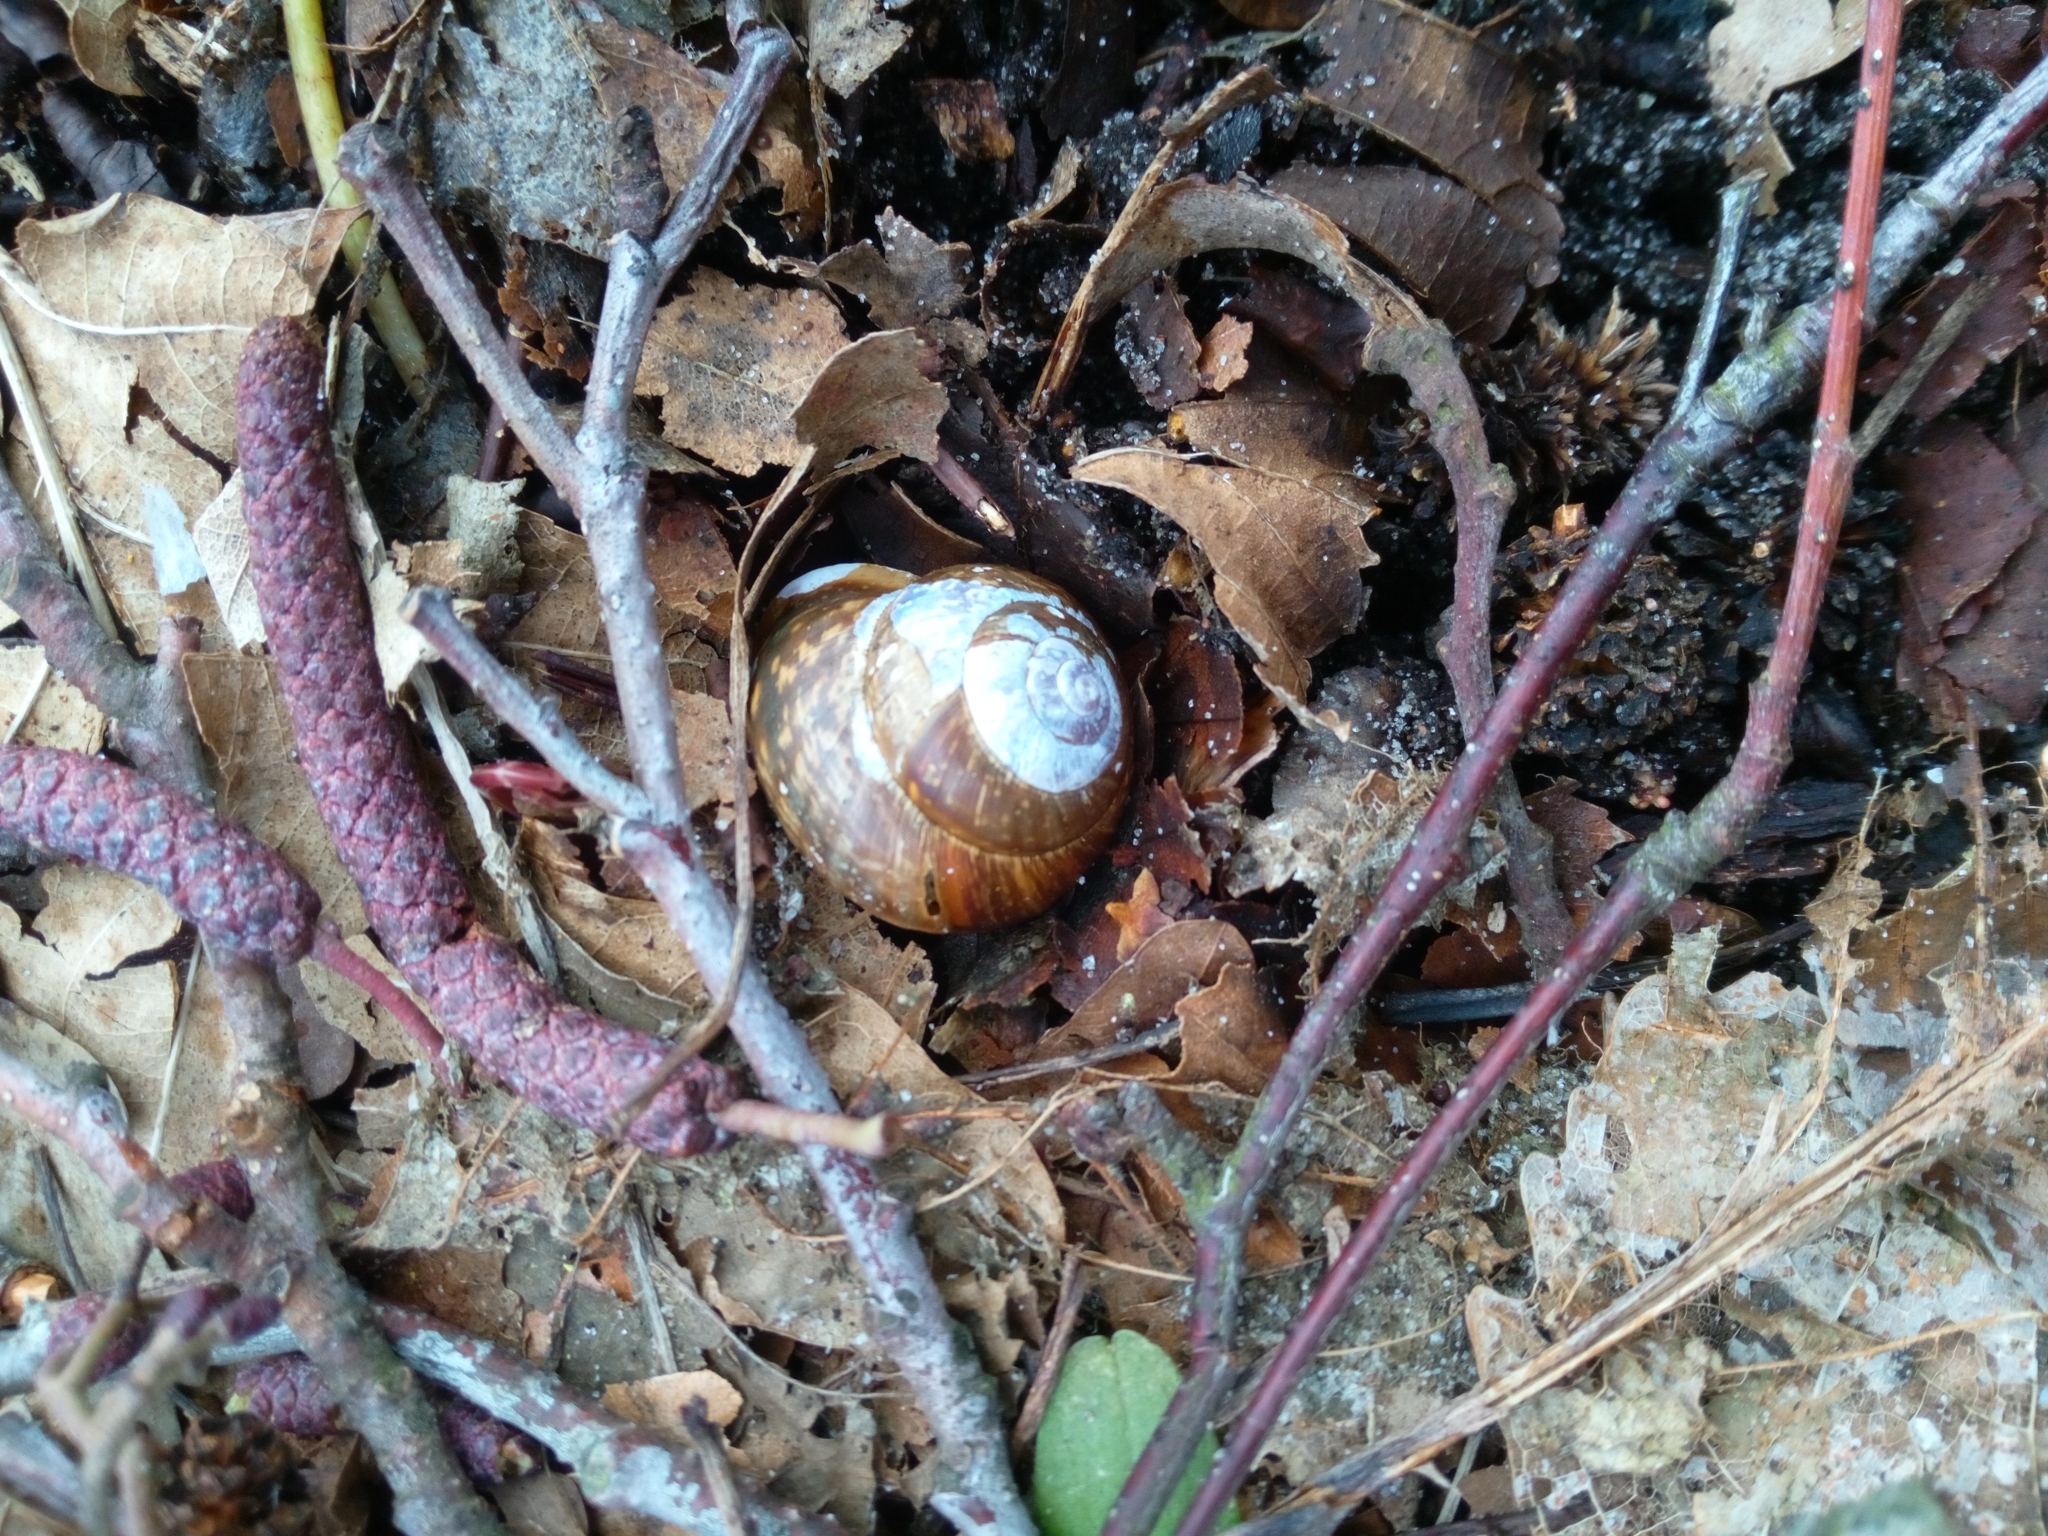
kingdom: Animalia
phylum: Mollusca
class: Gastropoda
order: Stylommatophora
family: Helicidae
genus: Arianta
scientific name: Arianta arbustorum
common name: Copse snail
